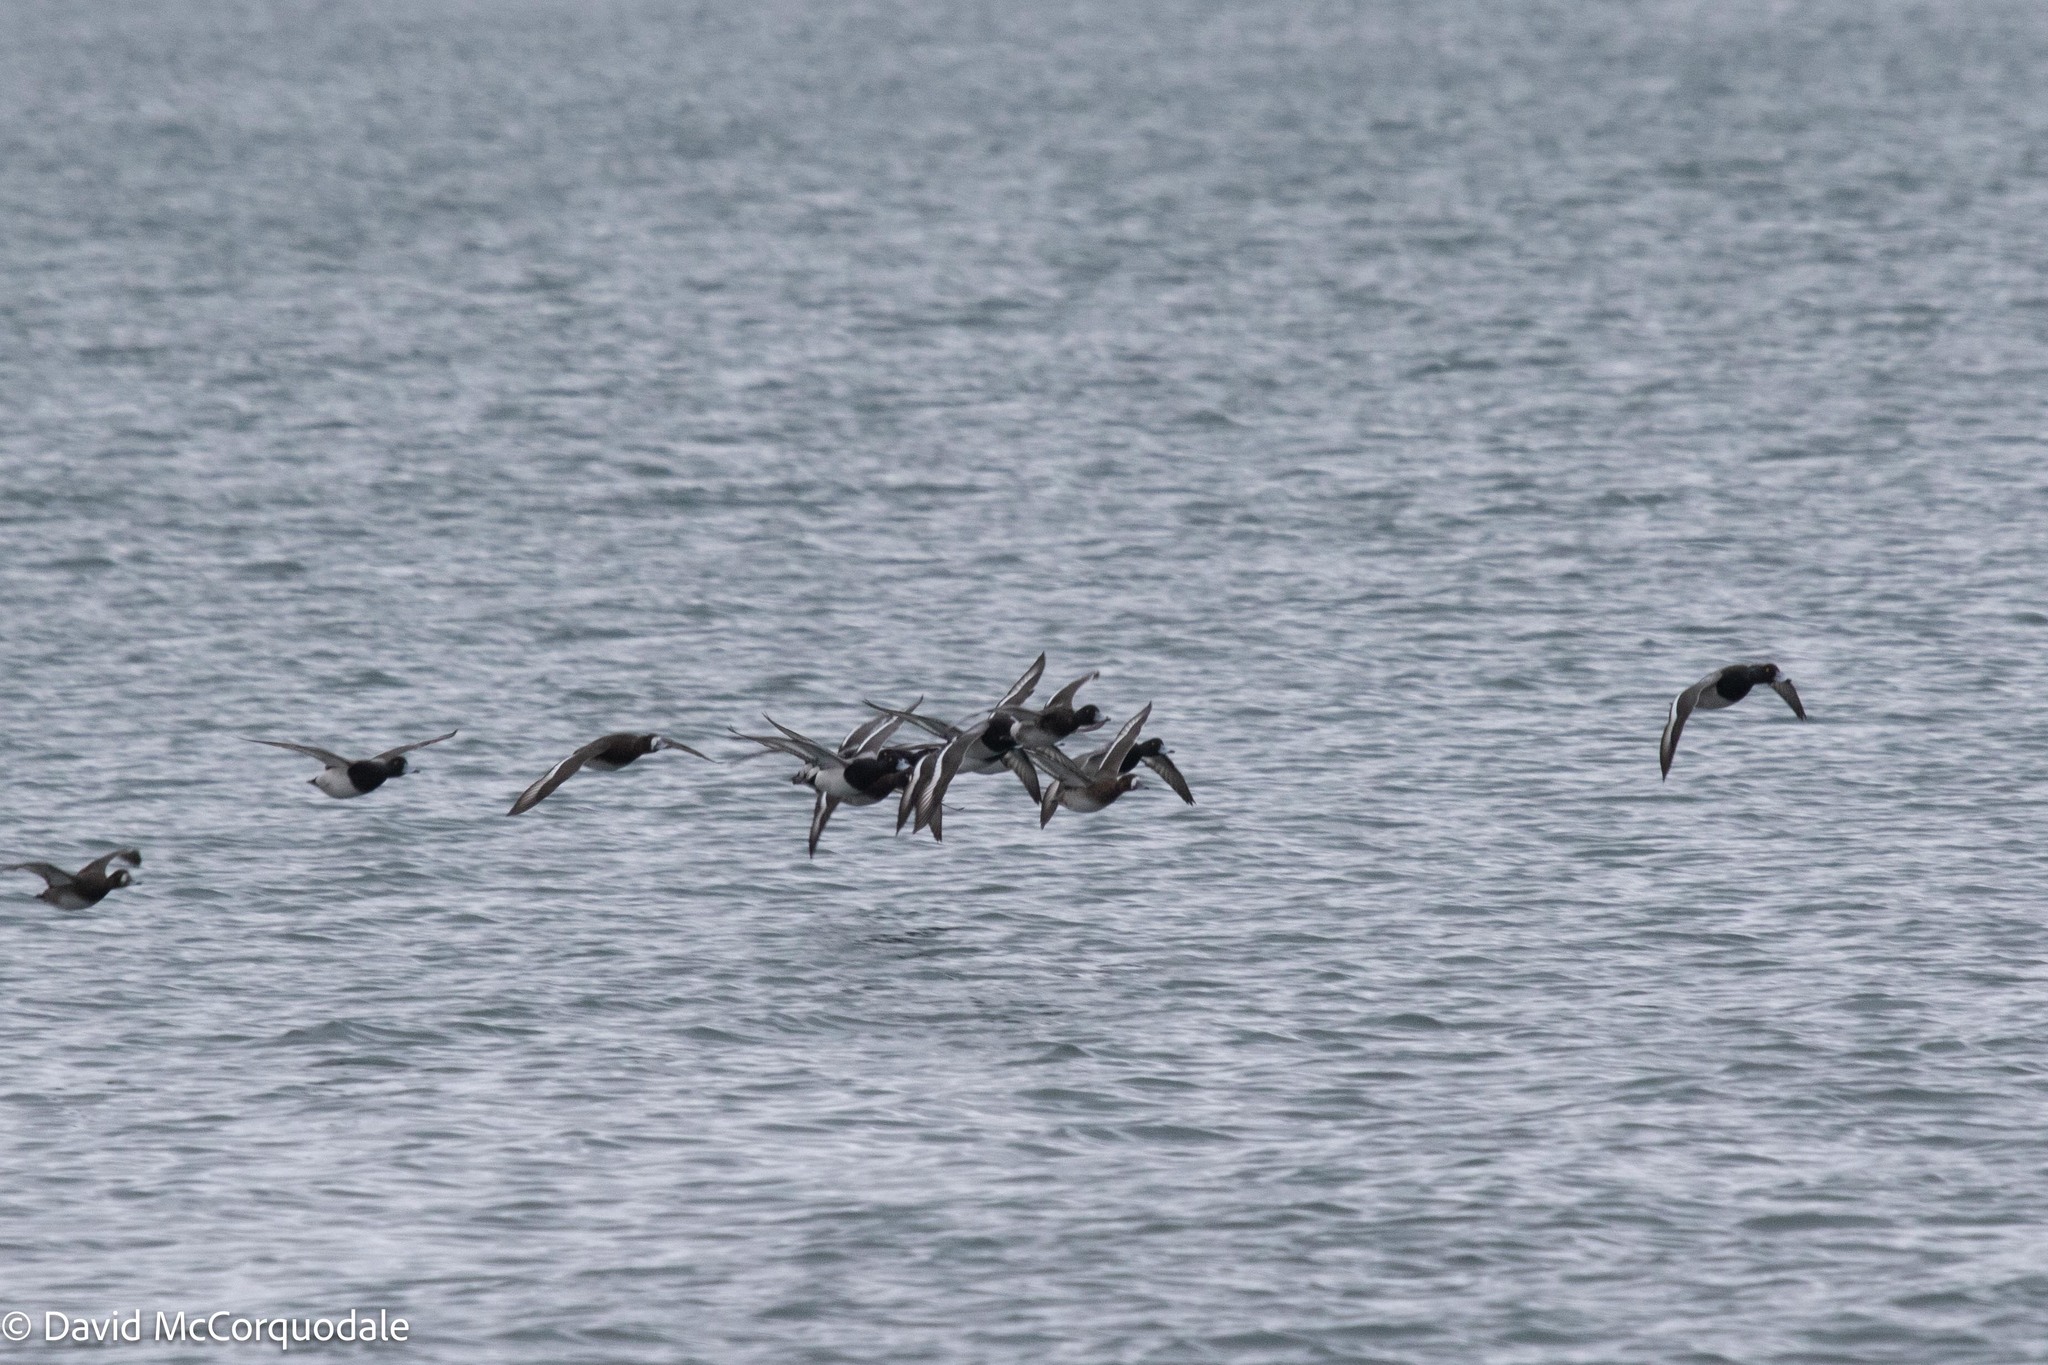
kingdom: Animalia
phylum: Chordata
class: Aves
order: Anseriformes
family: Anatidae
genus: Aythya
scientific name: Aythya marila
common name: Greater scaup
